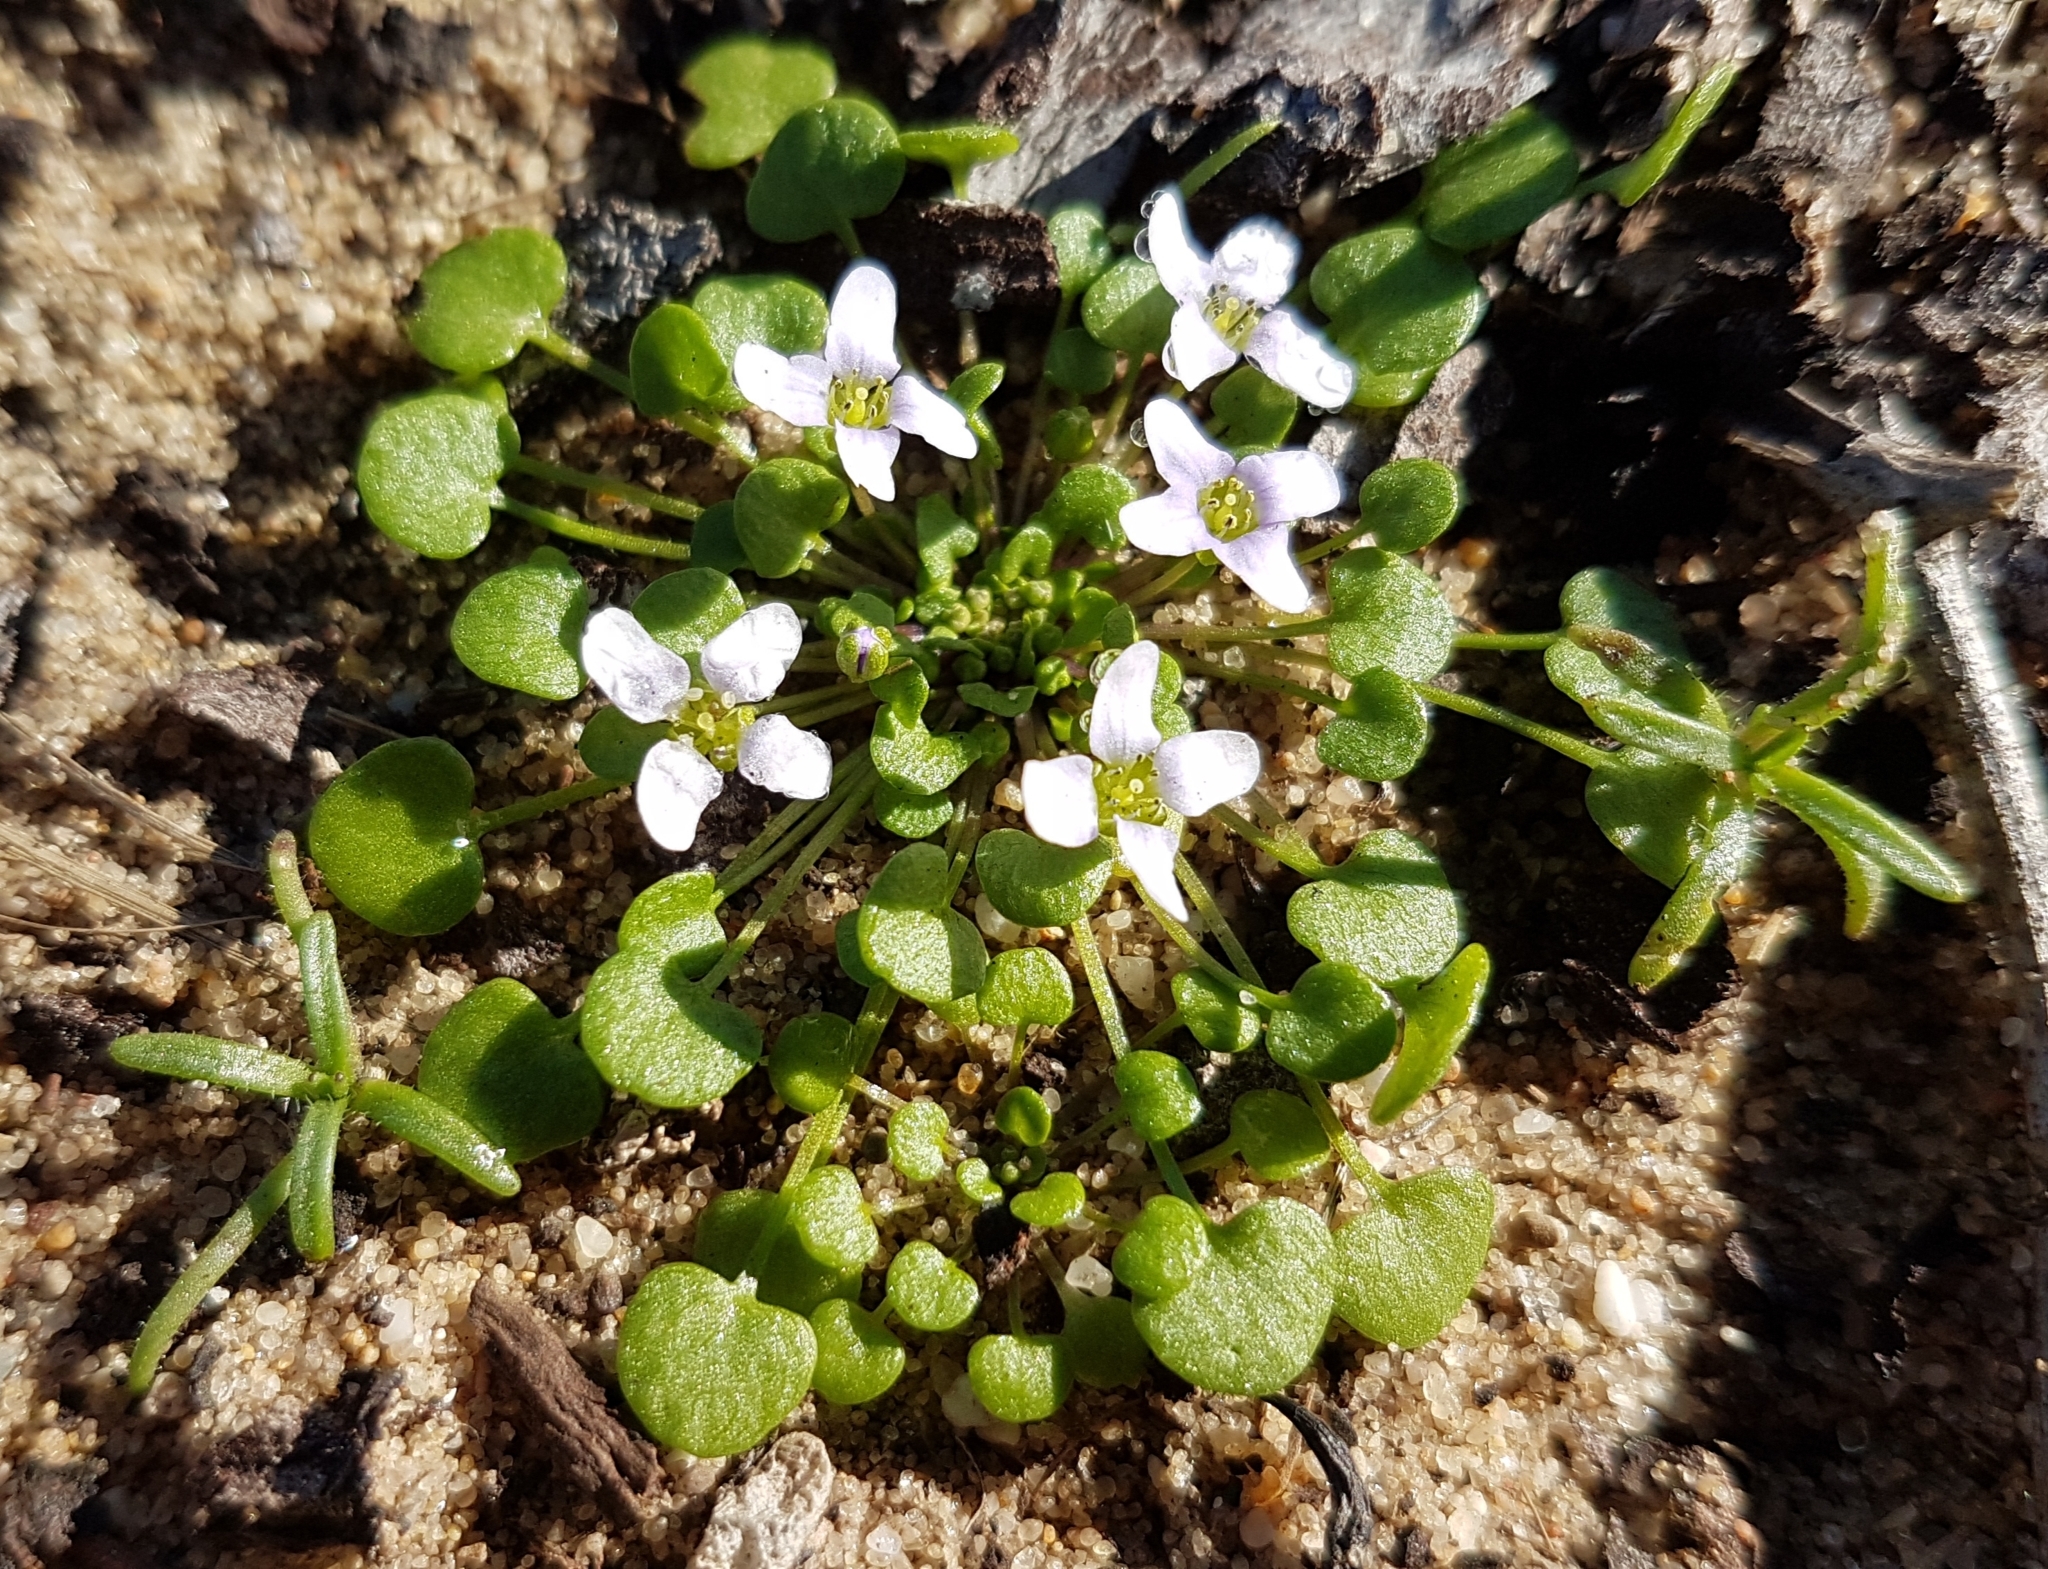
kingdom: Plantae
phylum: Tracheophyta
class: Magnoliopsida
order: Brassicales
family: Brassicaceae
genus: Ionopsidium
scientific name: Ionopsidium acaule
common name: False diamondflower
